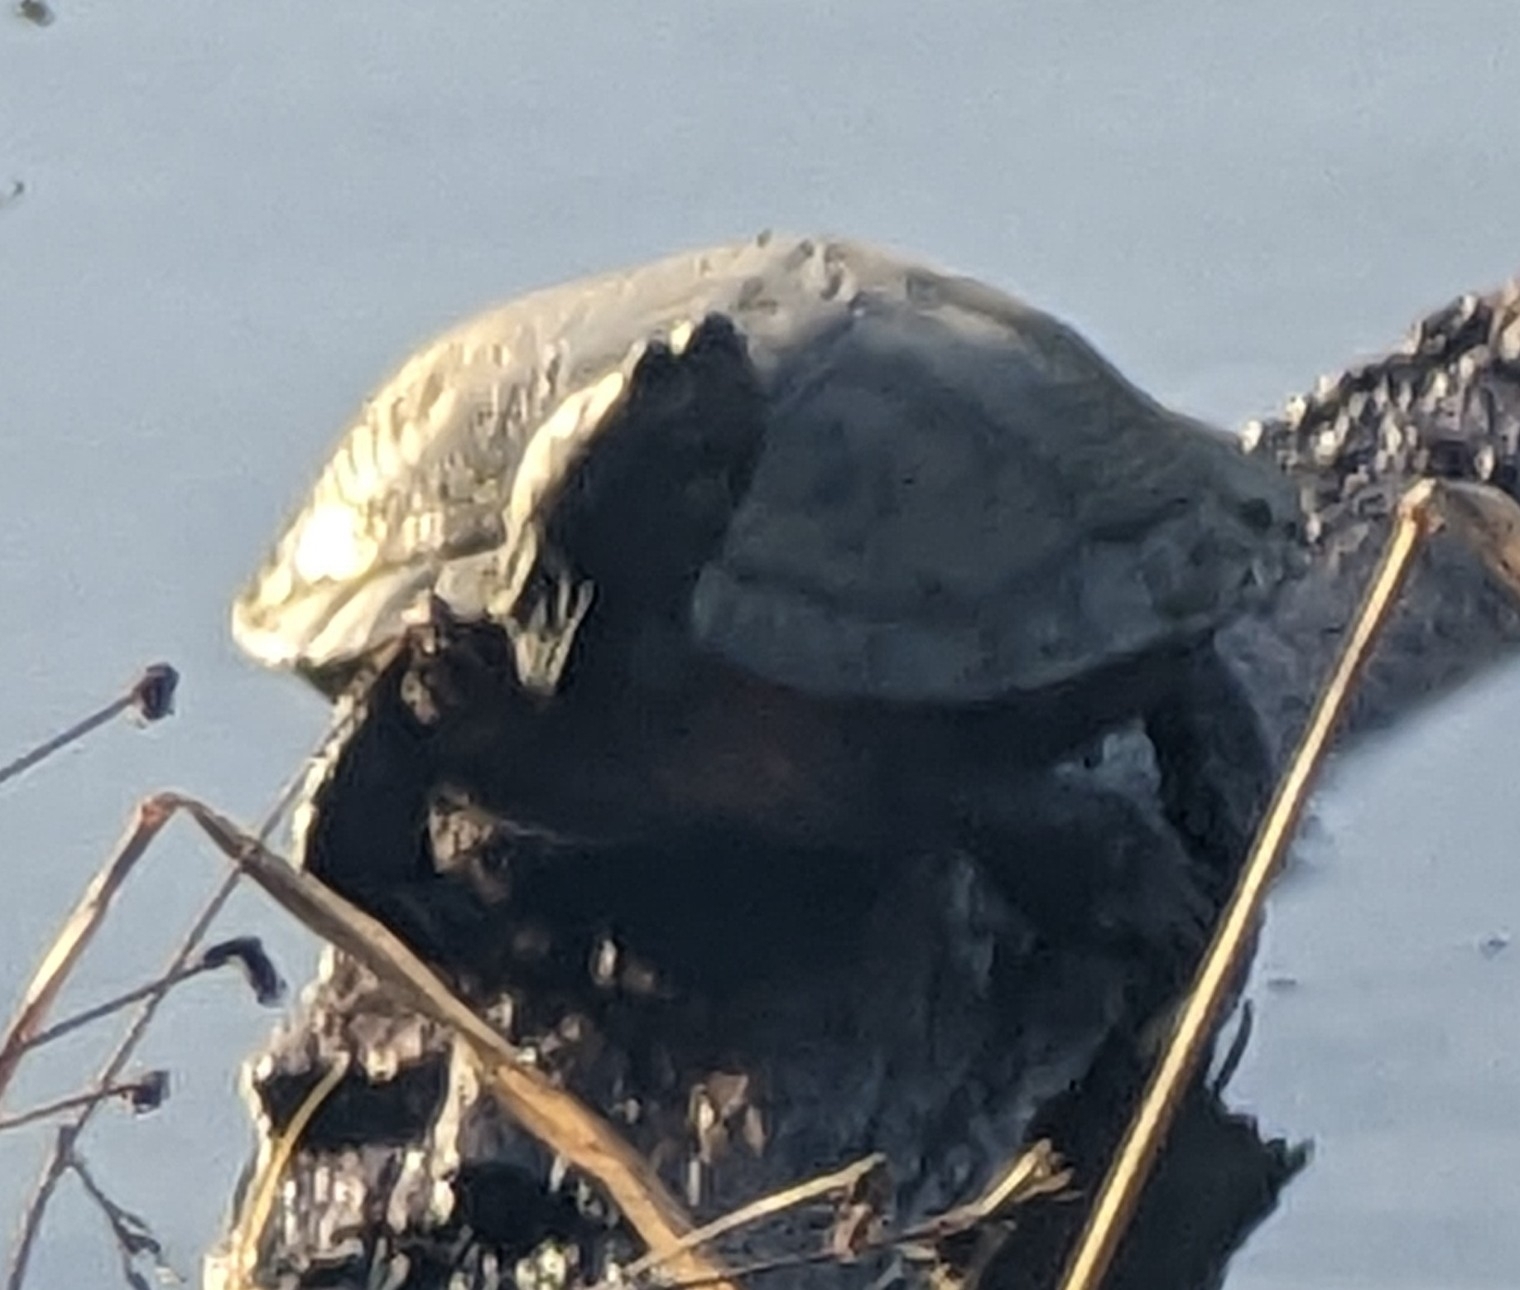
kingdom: Animalia
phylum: Chordata
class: Testudines
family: Emydidae
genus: Trachemys
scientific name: Trachemys scripta
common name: Slider
